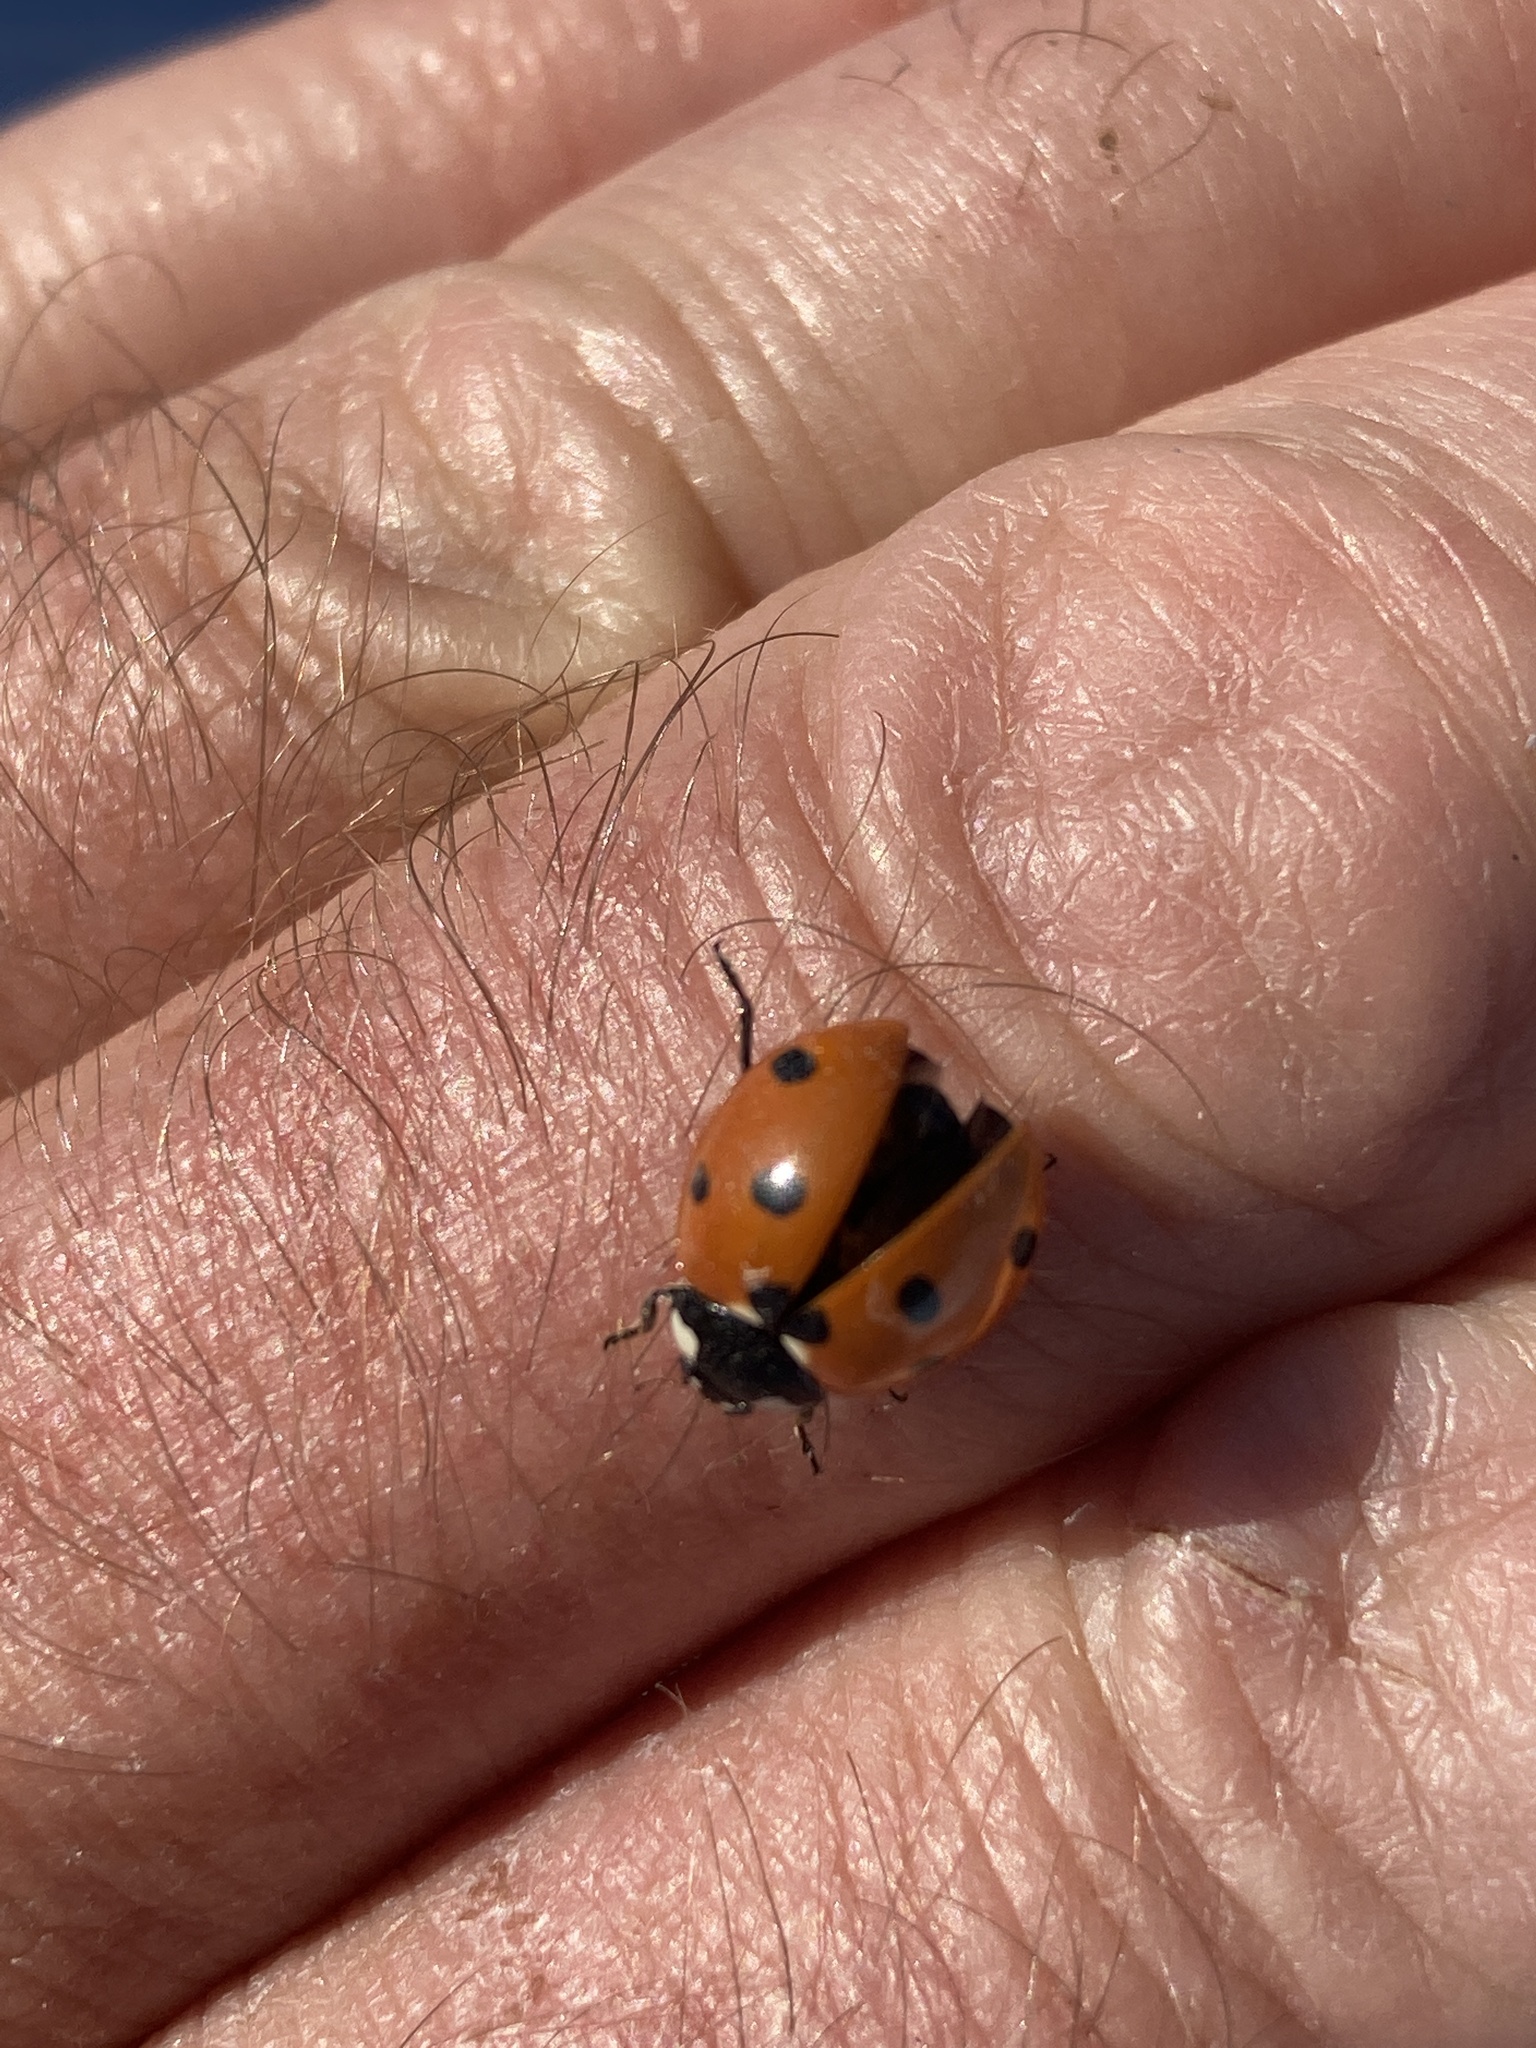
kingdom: Animalia
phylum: Arthropoda
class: Insecta
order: Coleoptera
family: Coccinellidae
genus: Coccinella
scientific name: Coccinella septempunctata
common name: Sevenspotted lady beetle
